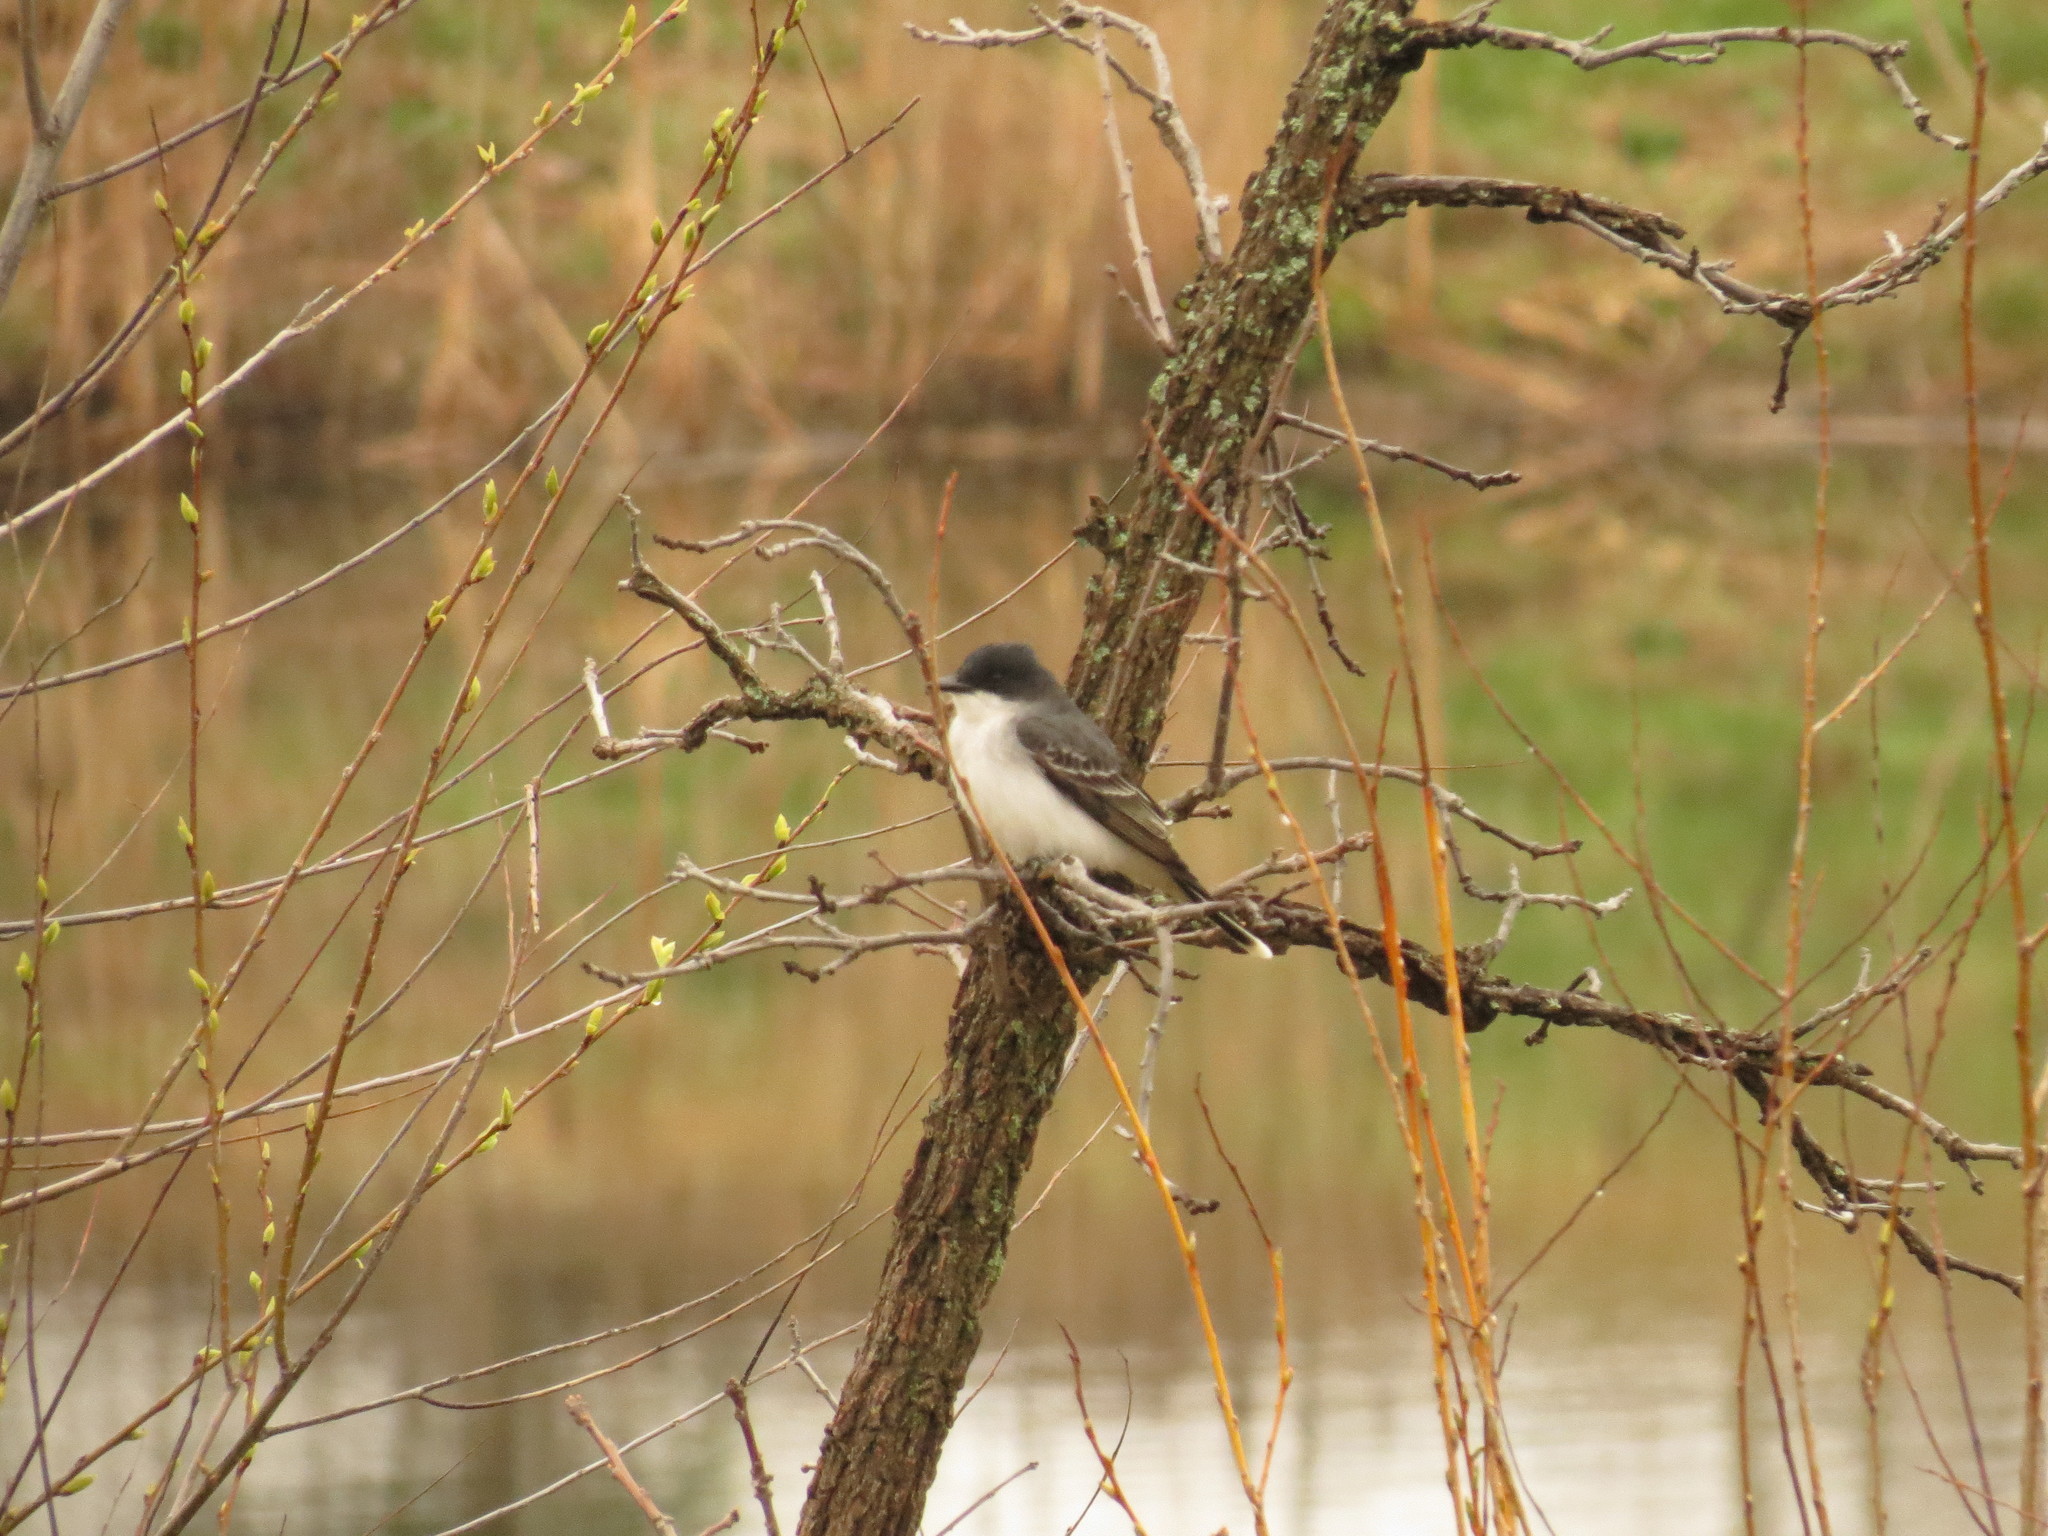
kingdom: Animalia
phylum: Chordata
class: Aves
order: Passeriformes
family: Tyrannidae
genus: Tyrannus
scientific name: Tyrannus tyrannus
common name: Eastern kingbird
